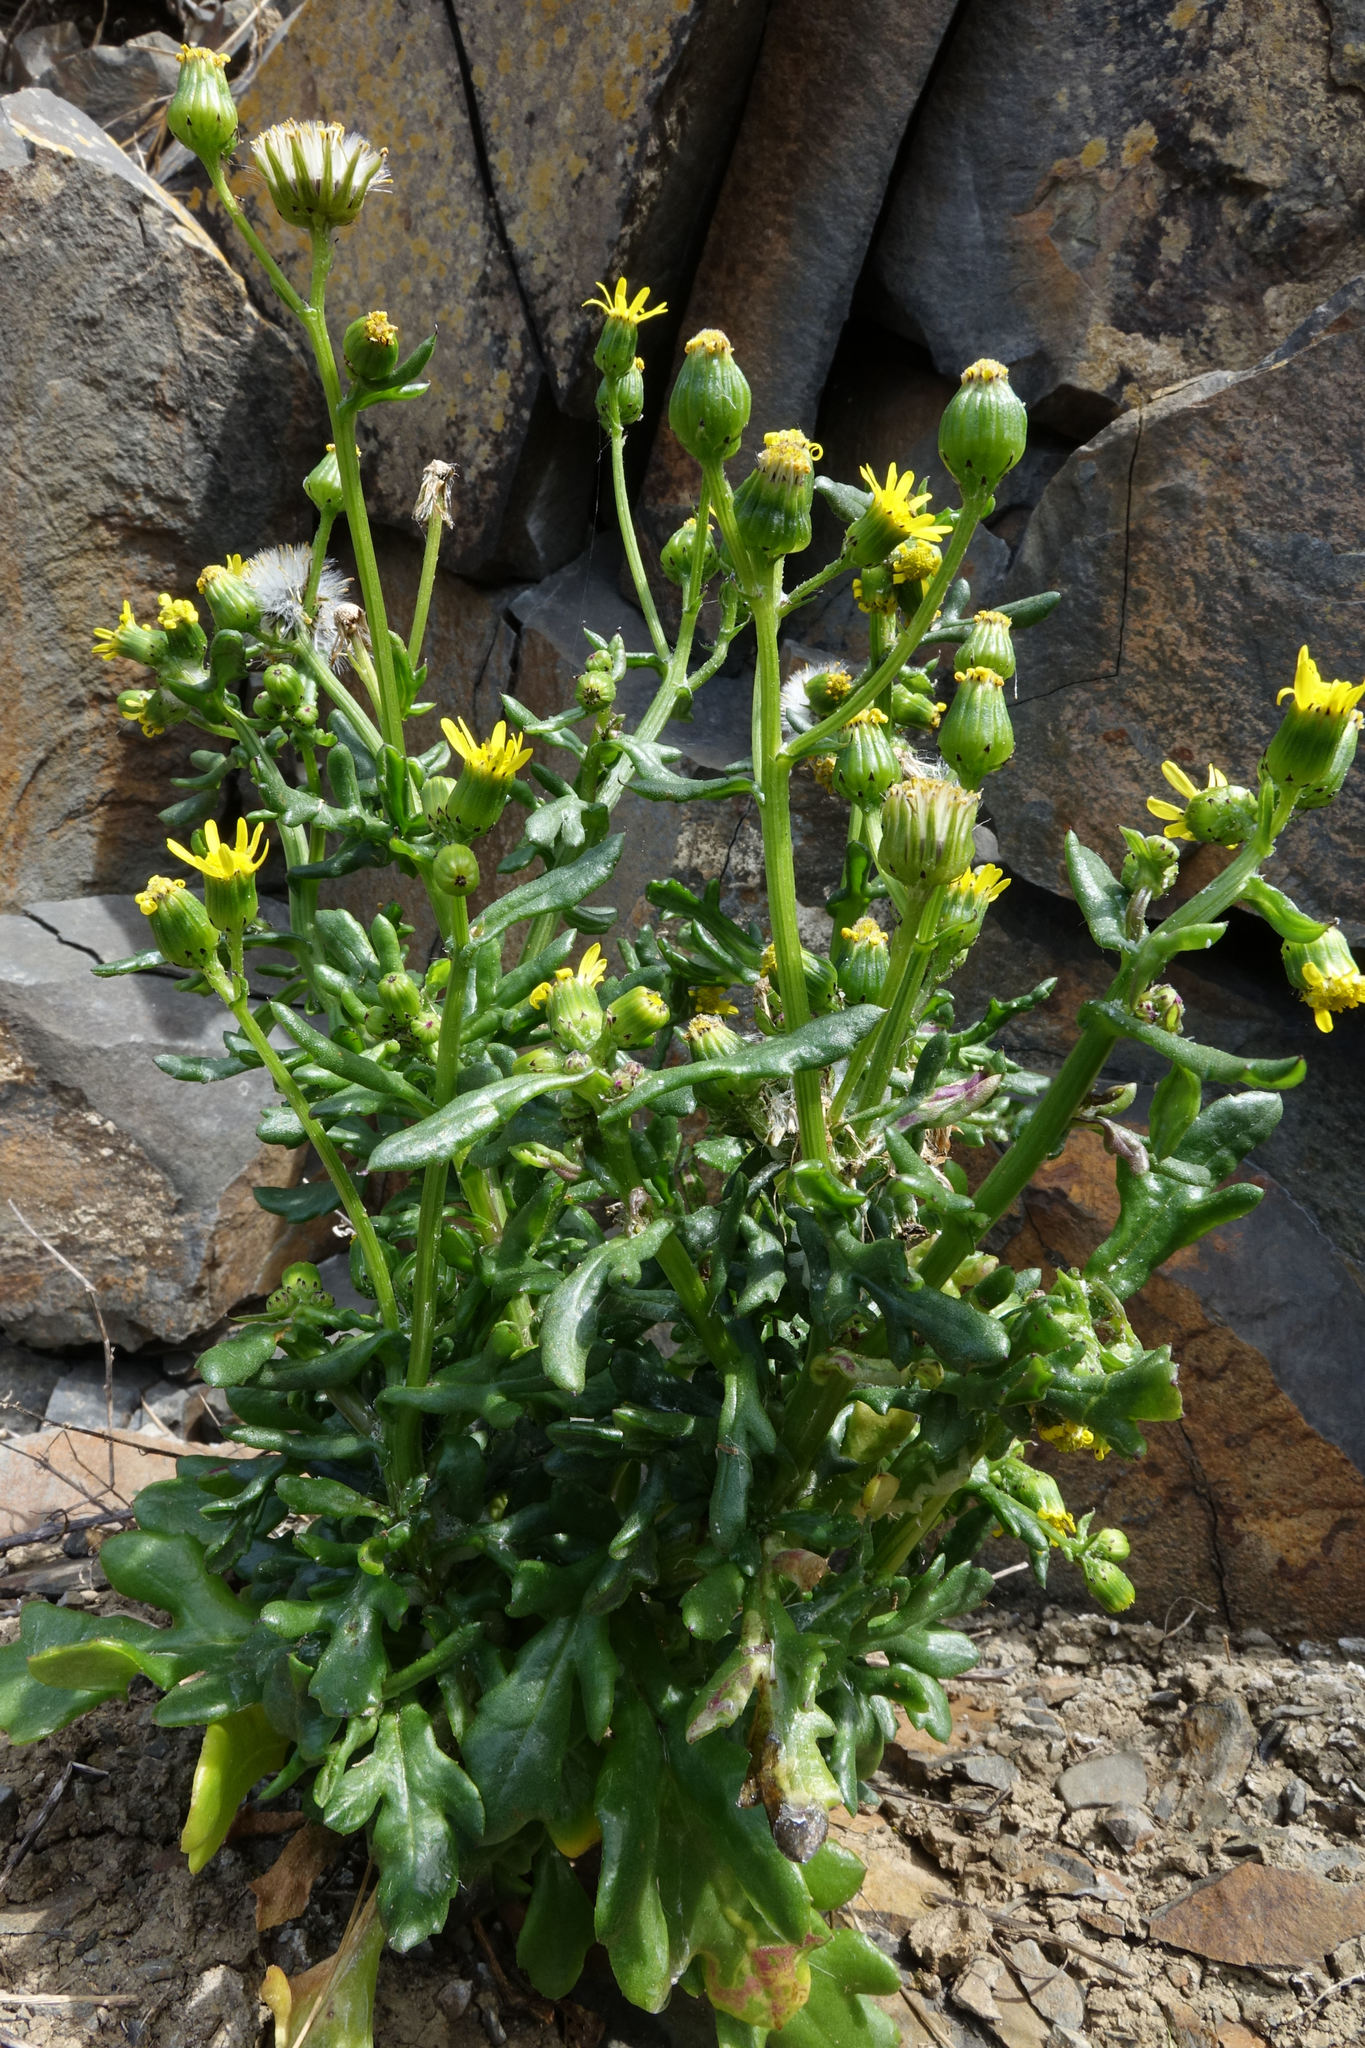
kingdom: Plantae
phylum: Tracheophyta
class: Magnoliopsida
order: Asterales
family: Asteraceae
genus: Senecio
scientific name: Senecio carnosulus
